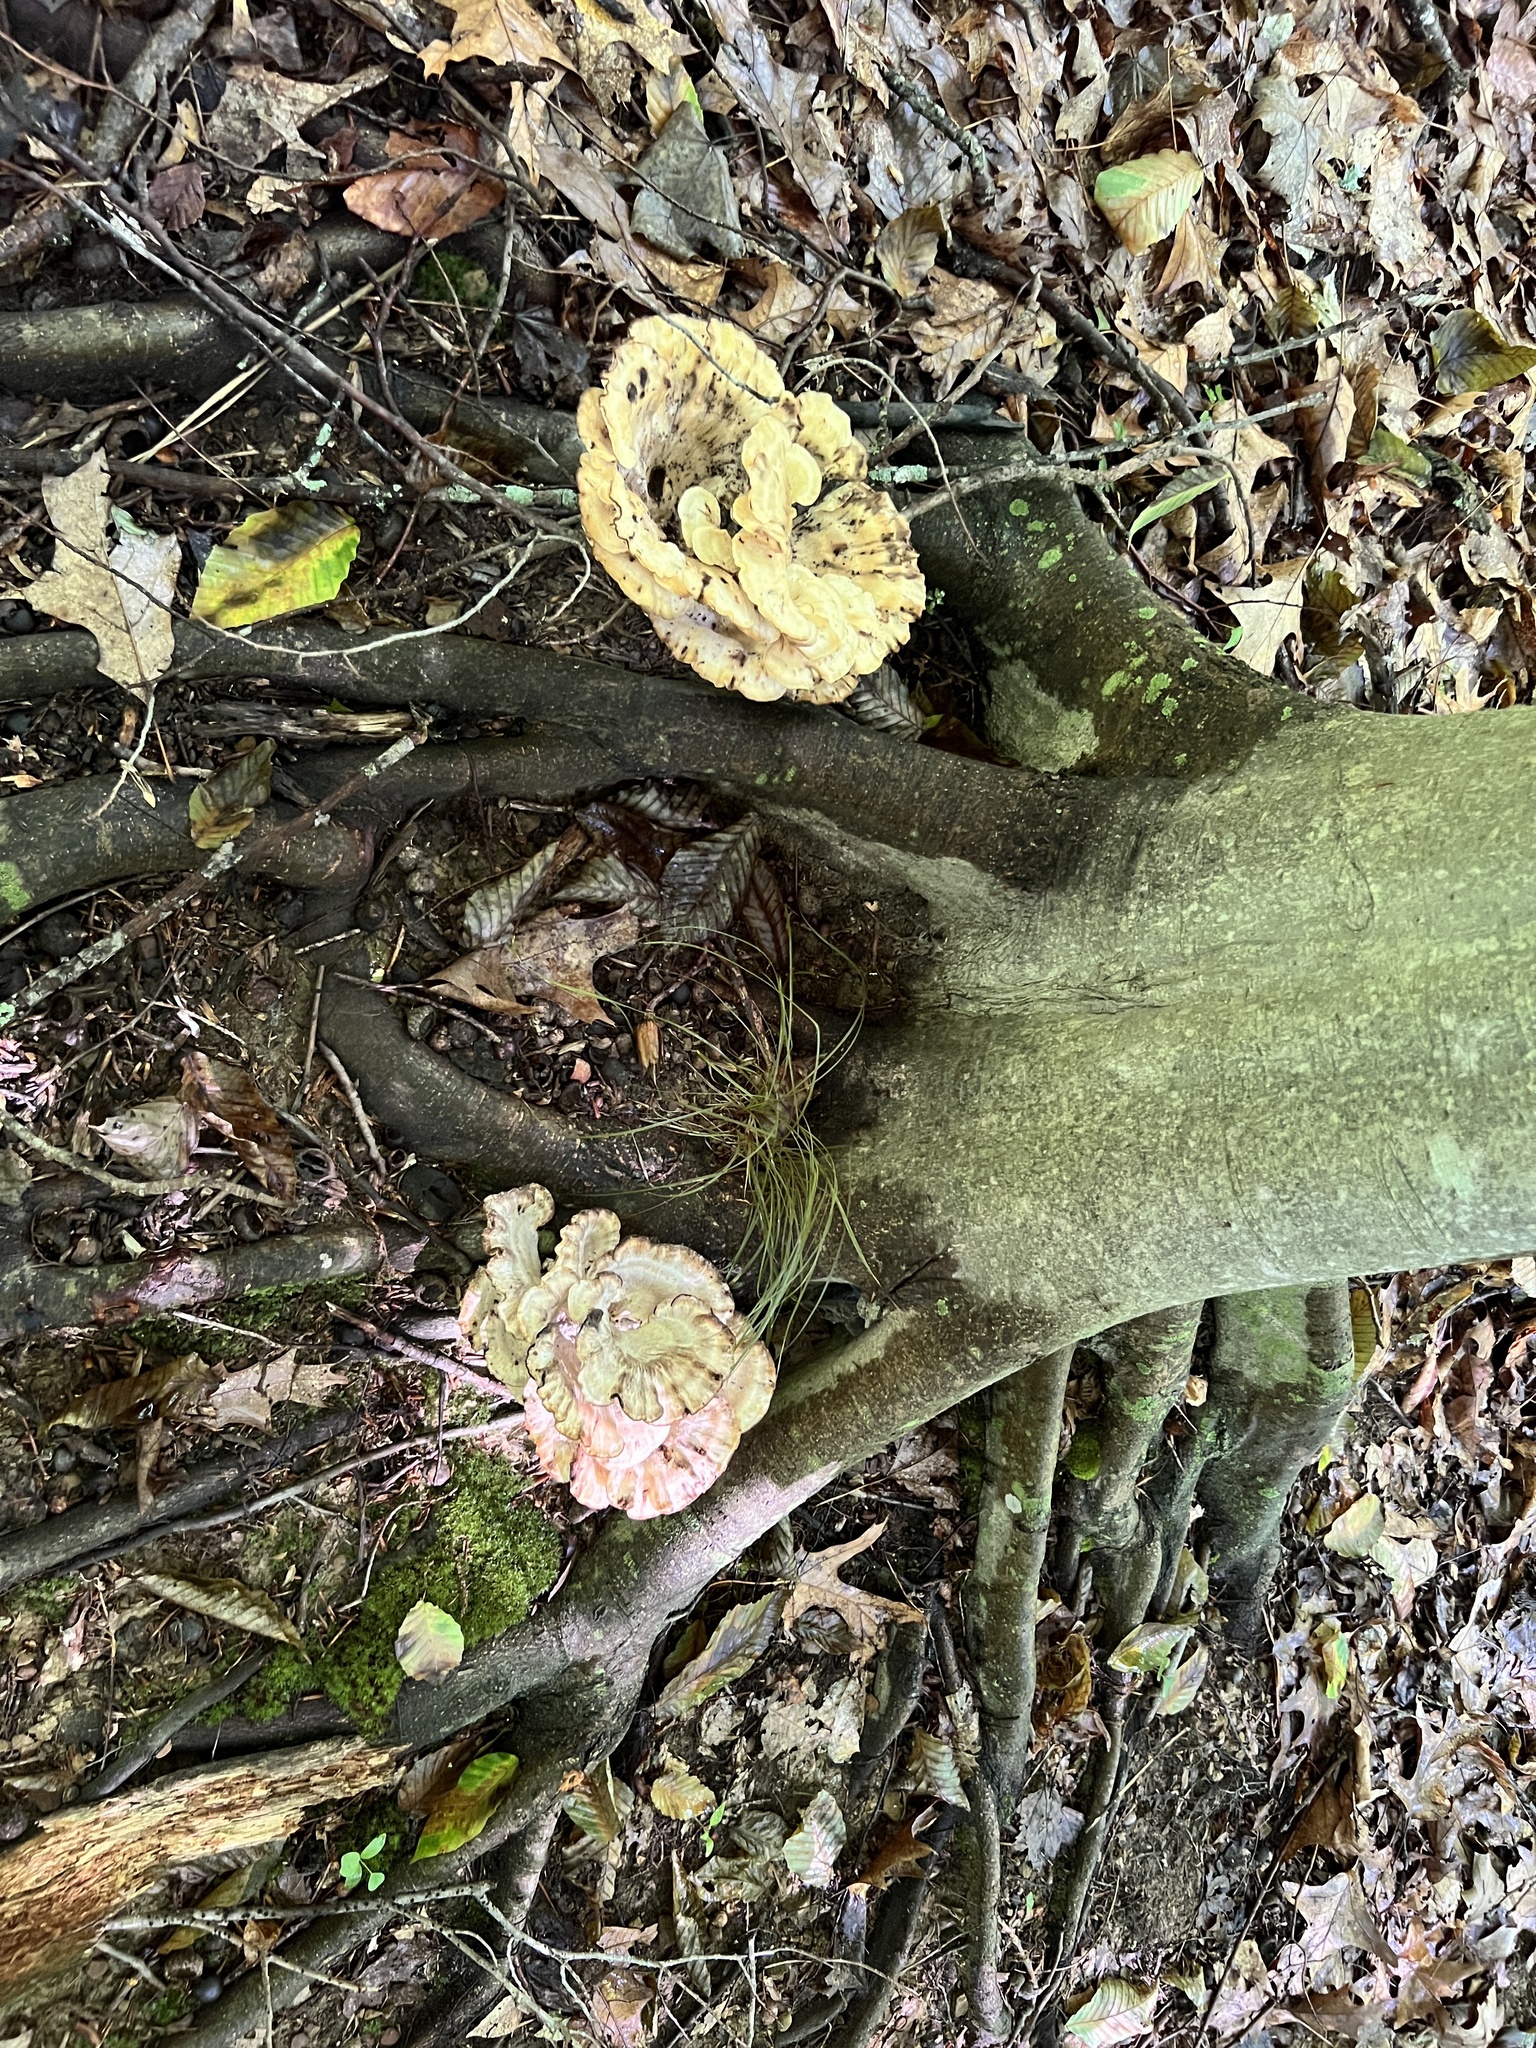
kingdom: Fungi
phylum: Basidiomycota
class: Agaricomycetes
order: Polyporales
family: Meripilaceae
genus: Meripilus
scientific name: Meripilus sumstinei
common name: Black-staining polypore
